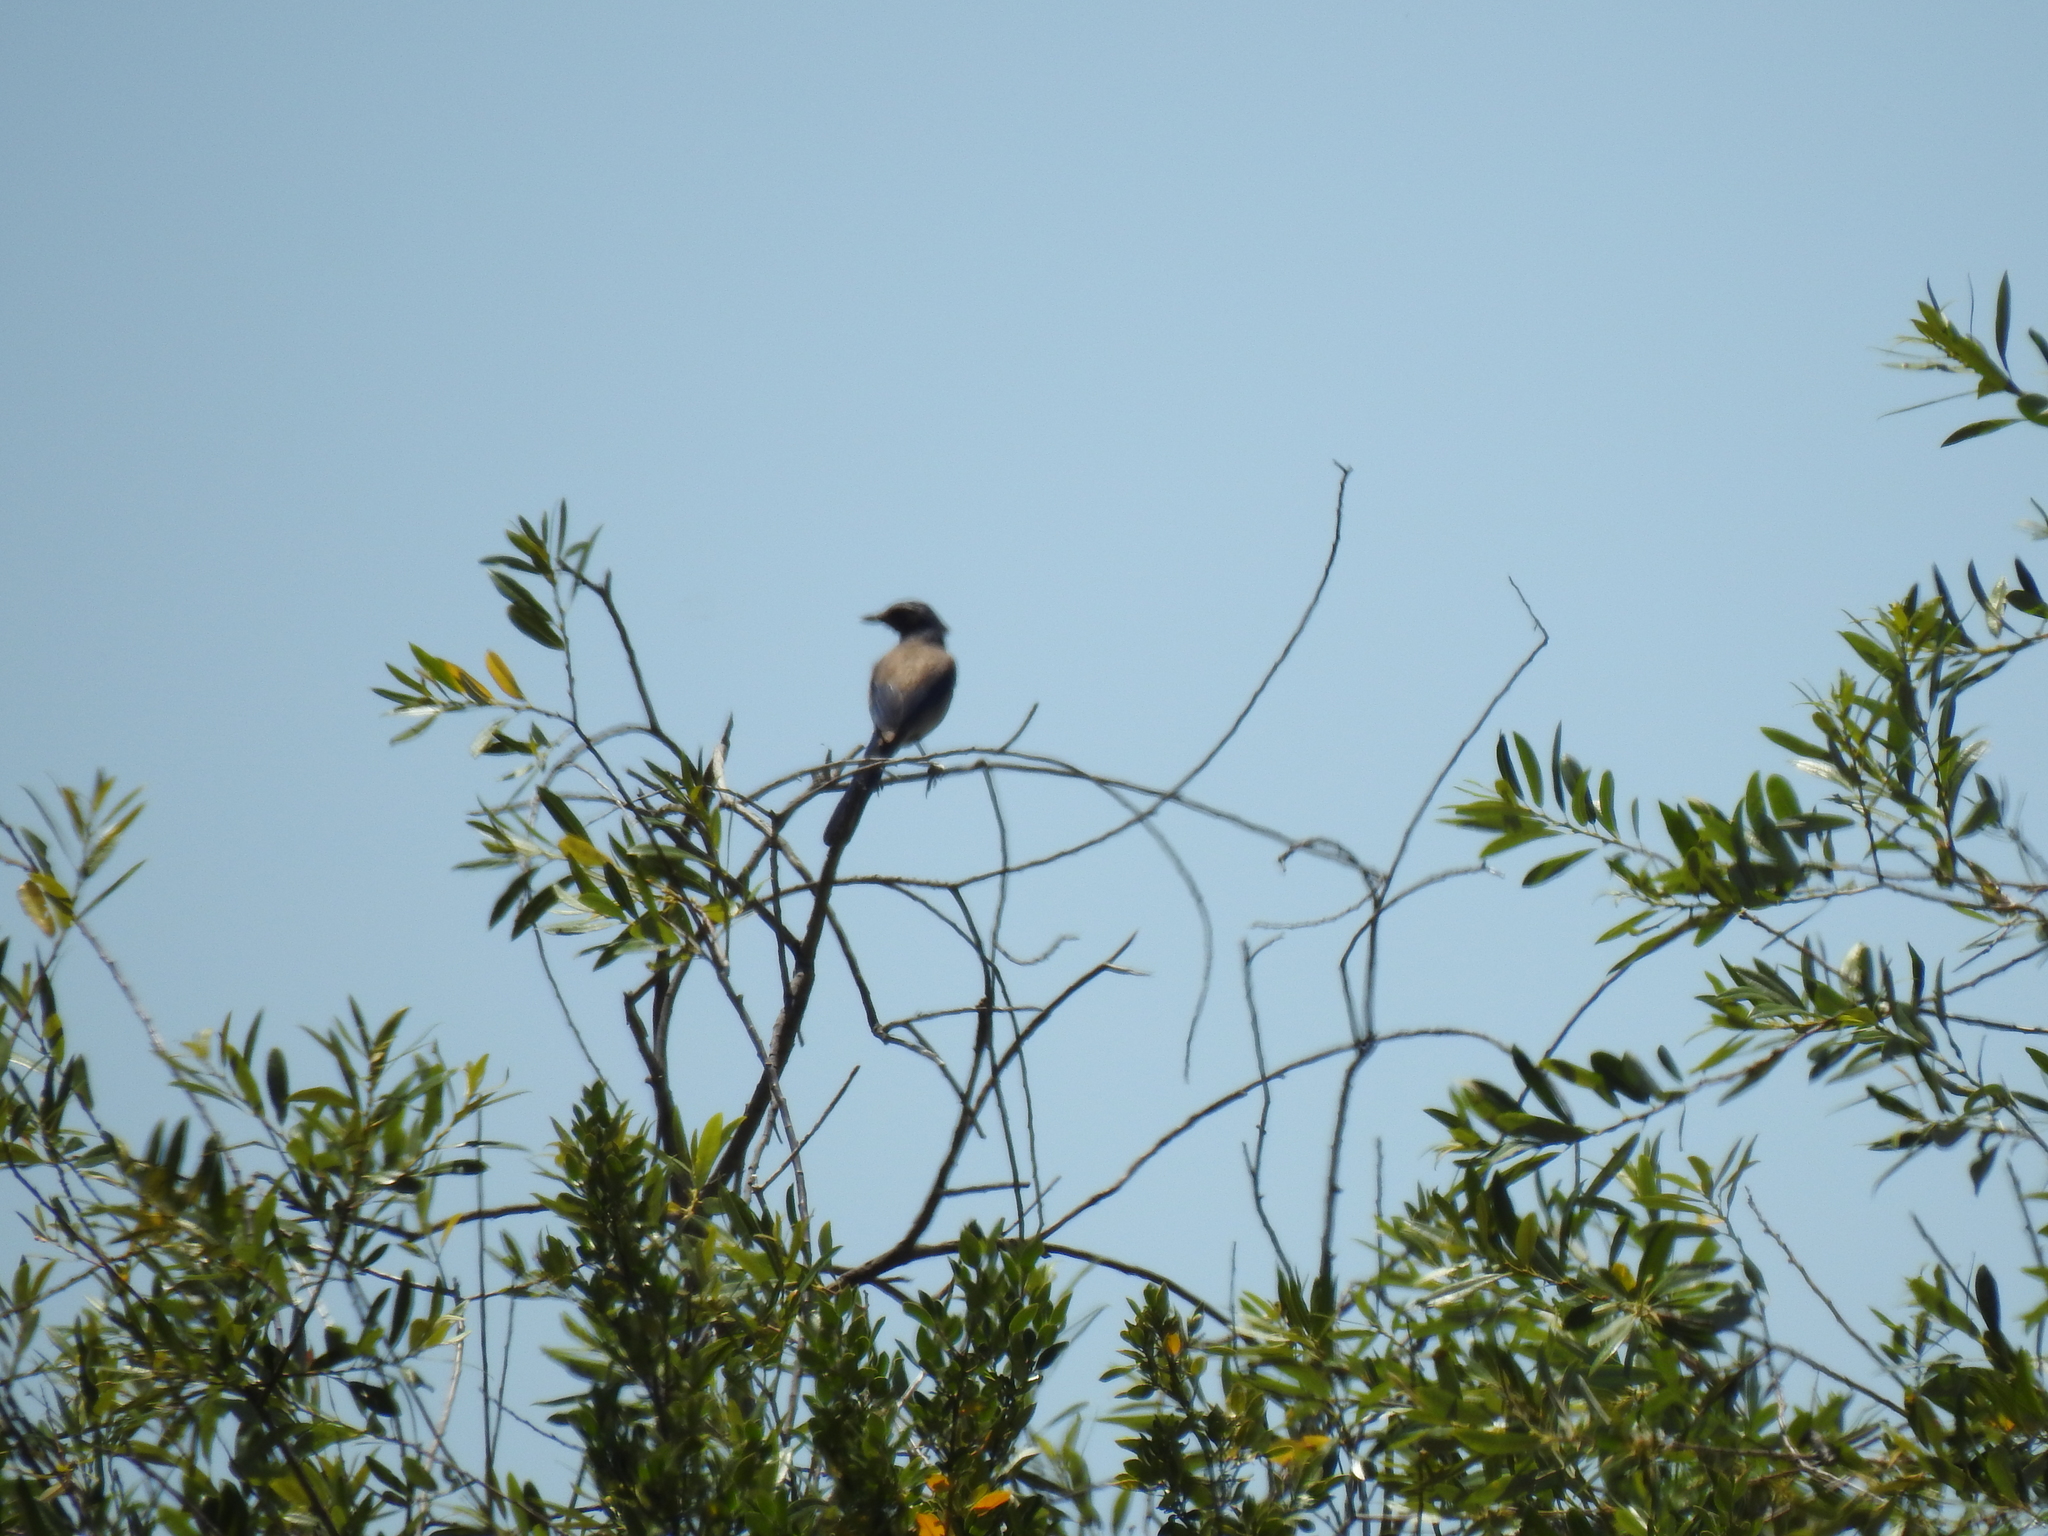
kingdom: Animalia
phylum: Chordata
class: Aves
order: Passeriformes
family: Corvidae
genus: Aphelocoma
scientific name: Aphelocoma californica
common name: California scrub-jay
